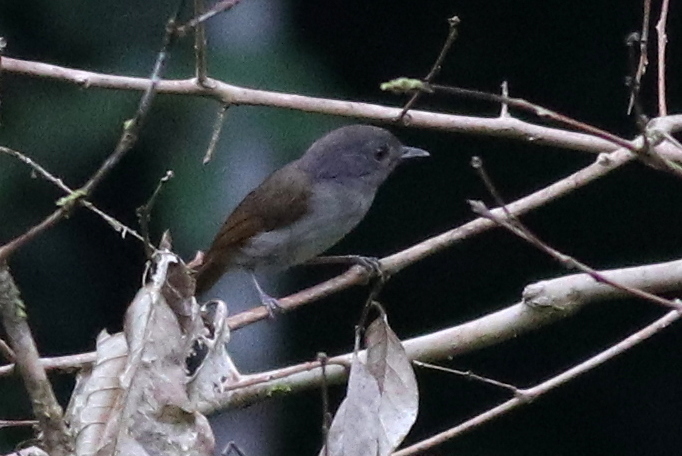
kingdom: Animalia
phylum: Chordata
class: Aves
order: Passeriformes
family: Pellorneidae
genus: Alcippe
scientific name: Alcippe brunneicauda
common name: Brown fulvetta
